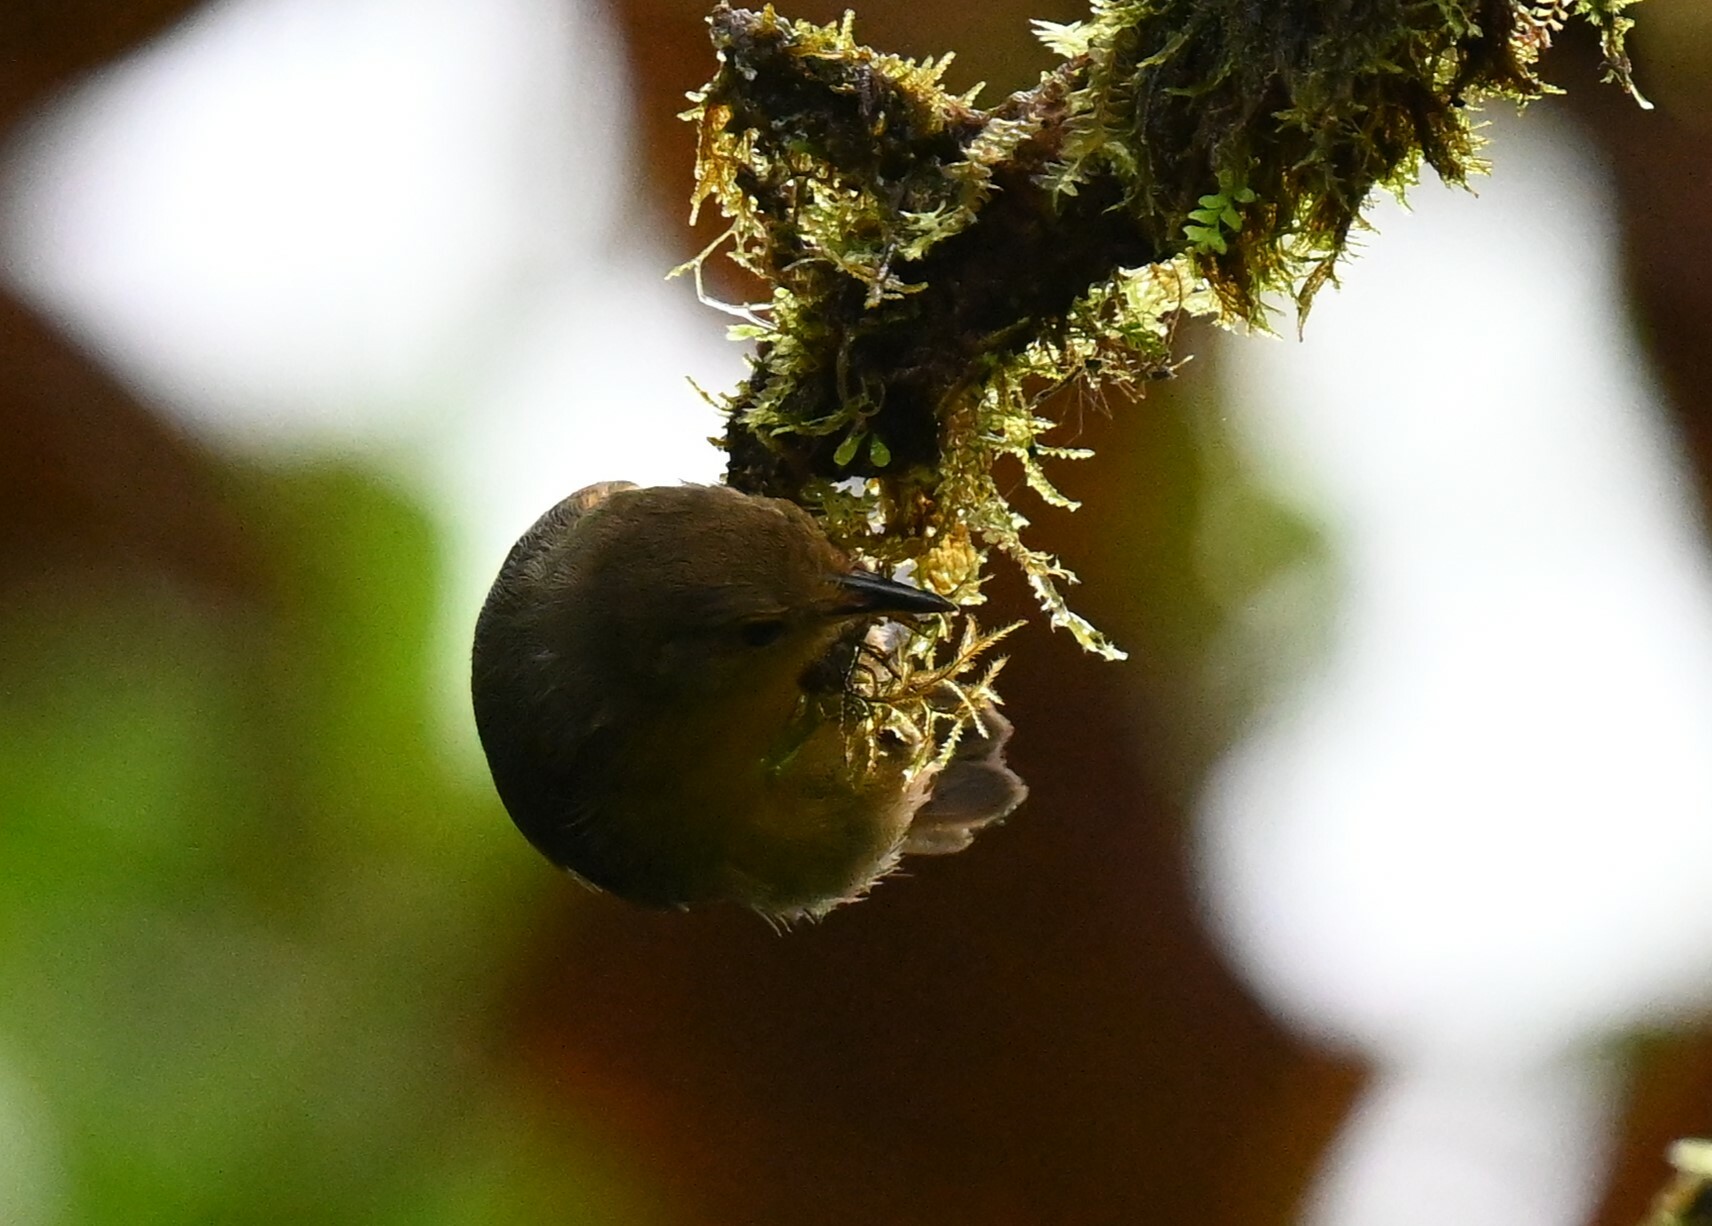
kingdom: Animalia
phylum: Chordata
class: Aves
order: Passeriformes
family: Thamnophilidae
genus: Myrmotherula
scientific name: Myrmotherula schisticolor
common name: Slaty antwren
